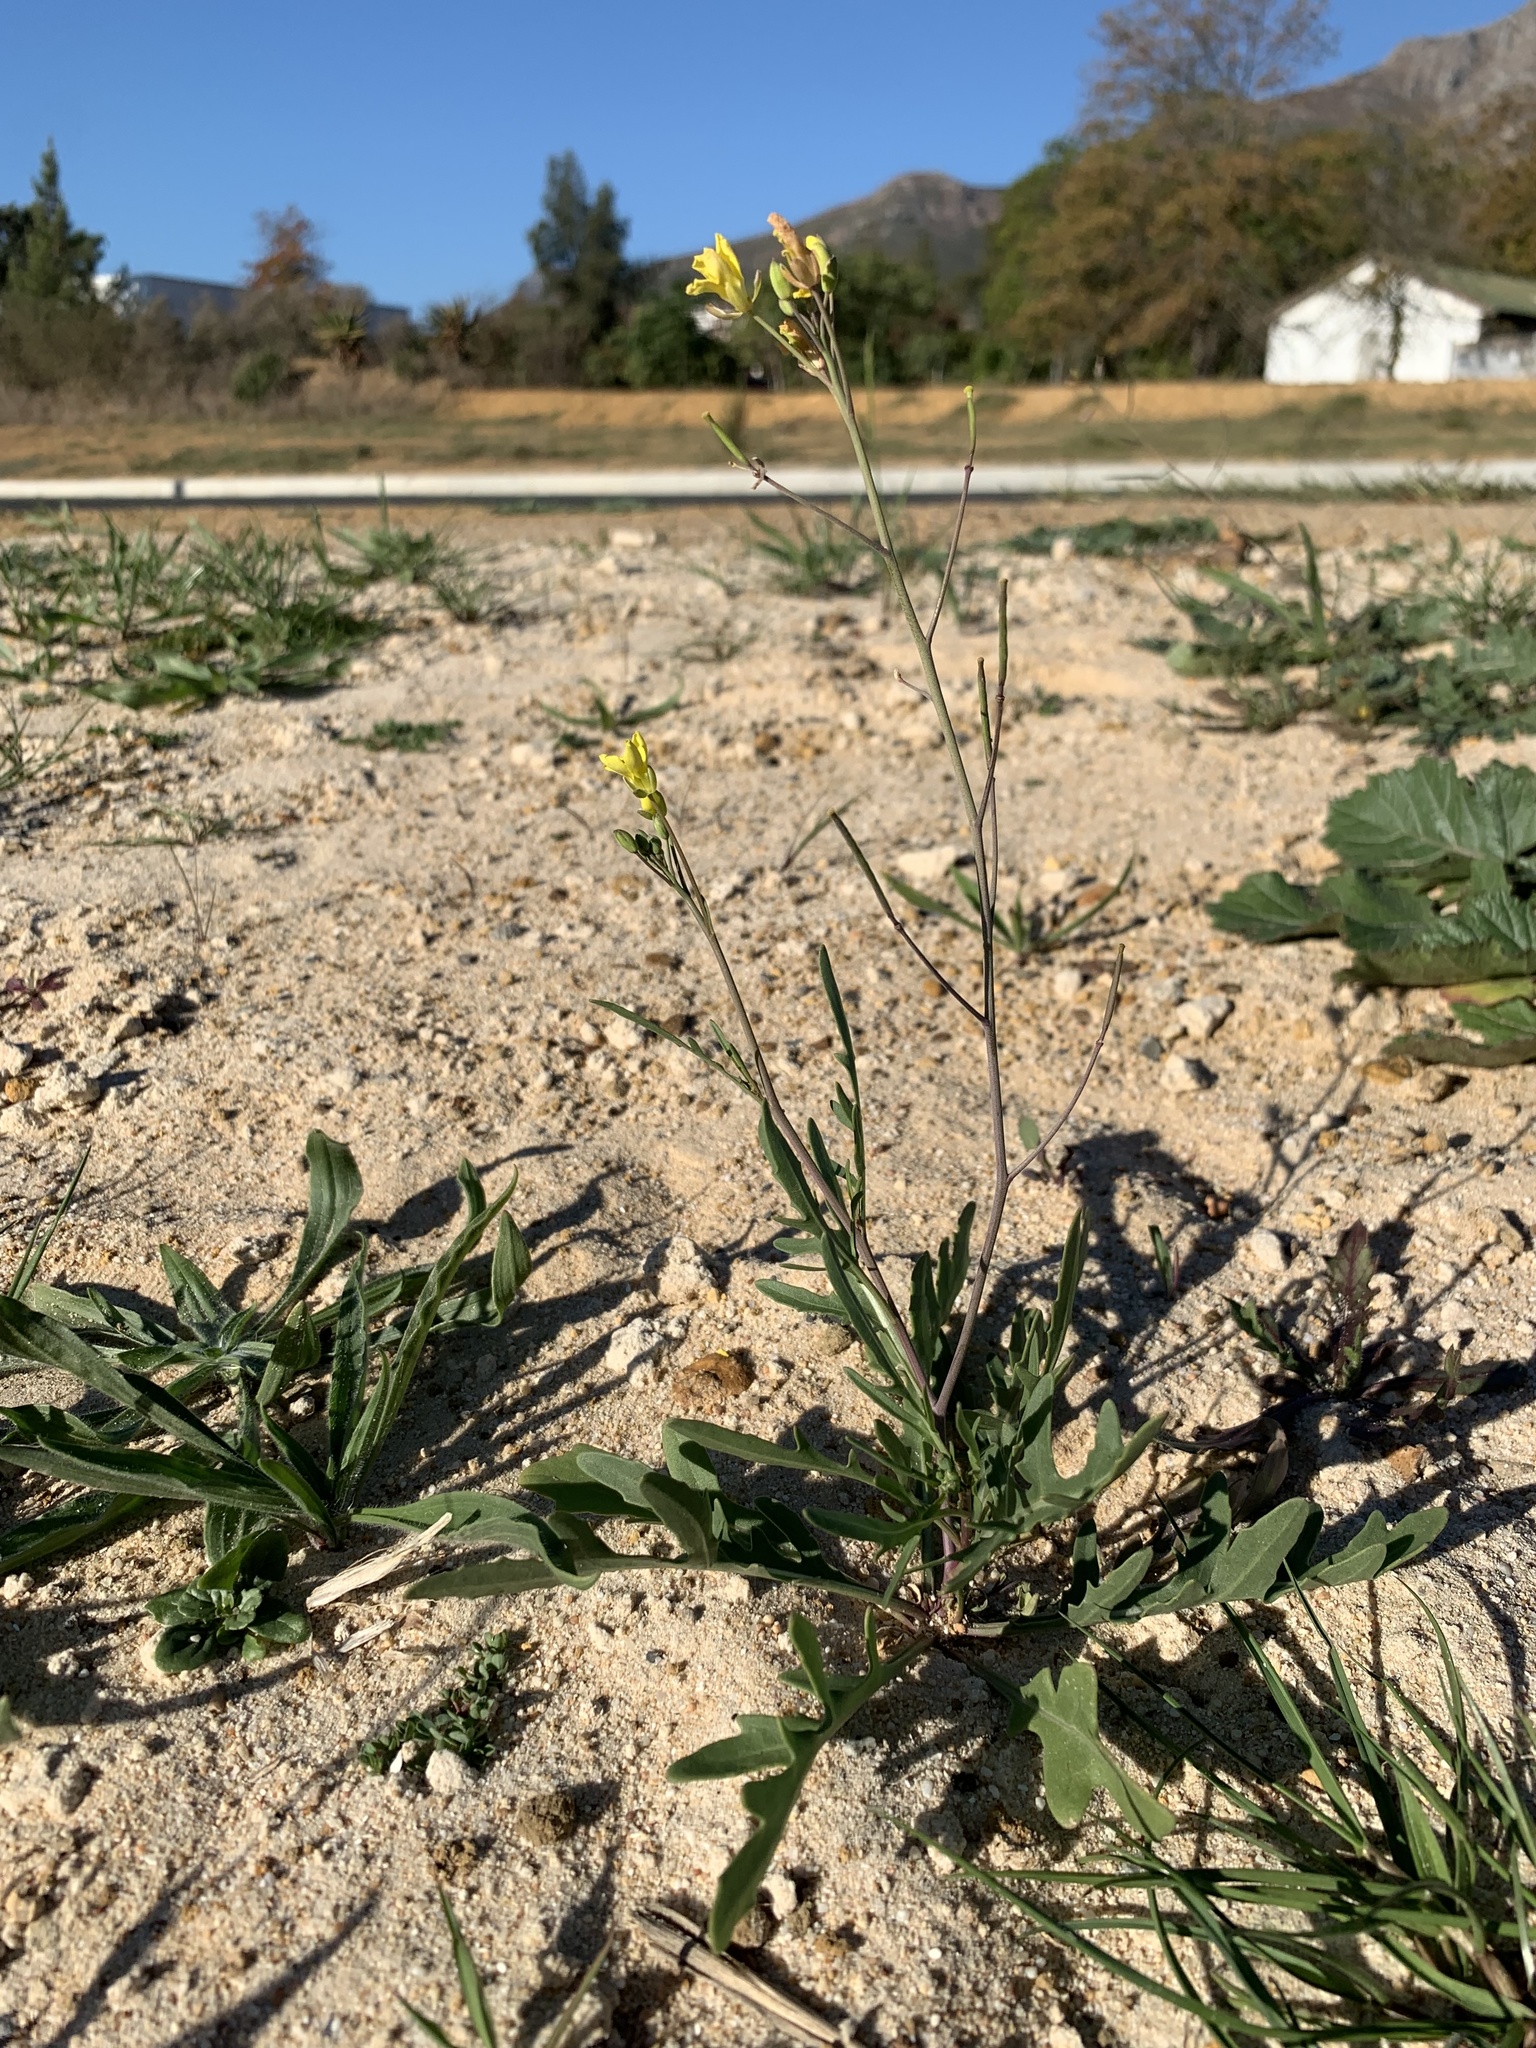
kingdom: Plantae
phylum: Tracheophyta
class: Magnoliopsida
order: Brassicales
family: Brassicaceae
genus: Diplotaxis
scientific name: Diplotaxis muralis
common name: Annual wall-rocket
